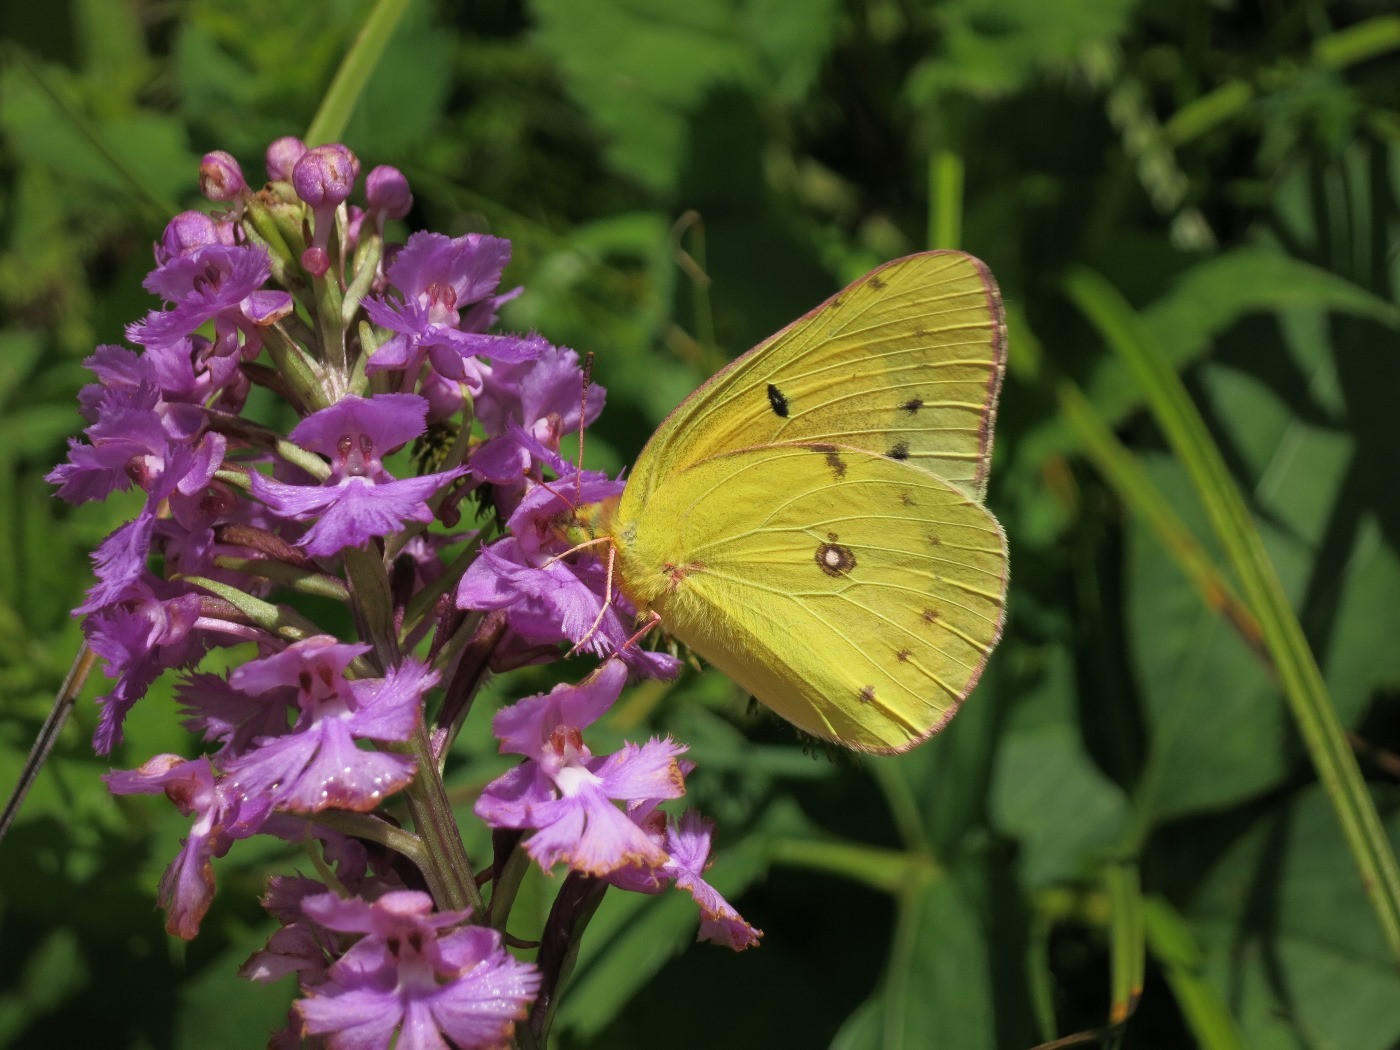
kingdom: Animalia
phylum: Arthropoda
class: Insecta
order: Lepidoptera
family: Pieridae
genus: Colias
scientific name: Colias eurytheme
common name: Alfalfa butterfly
